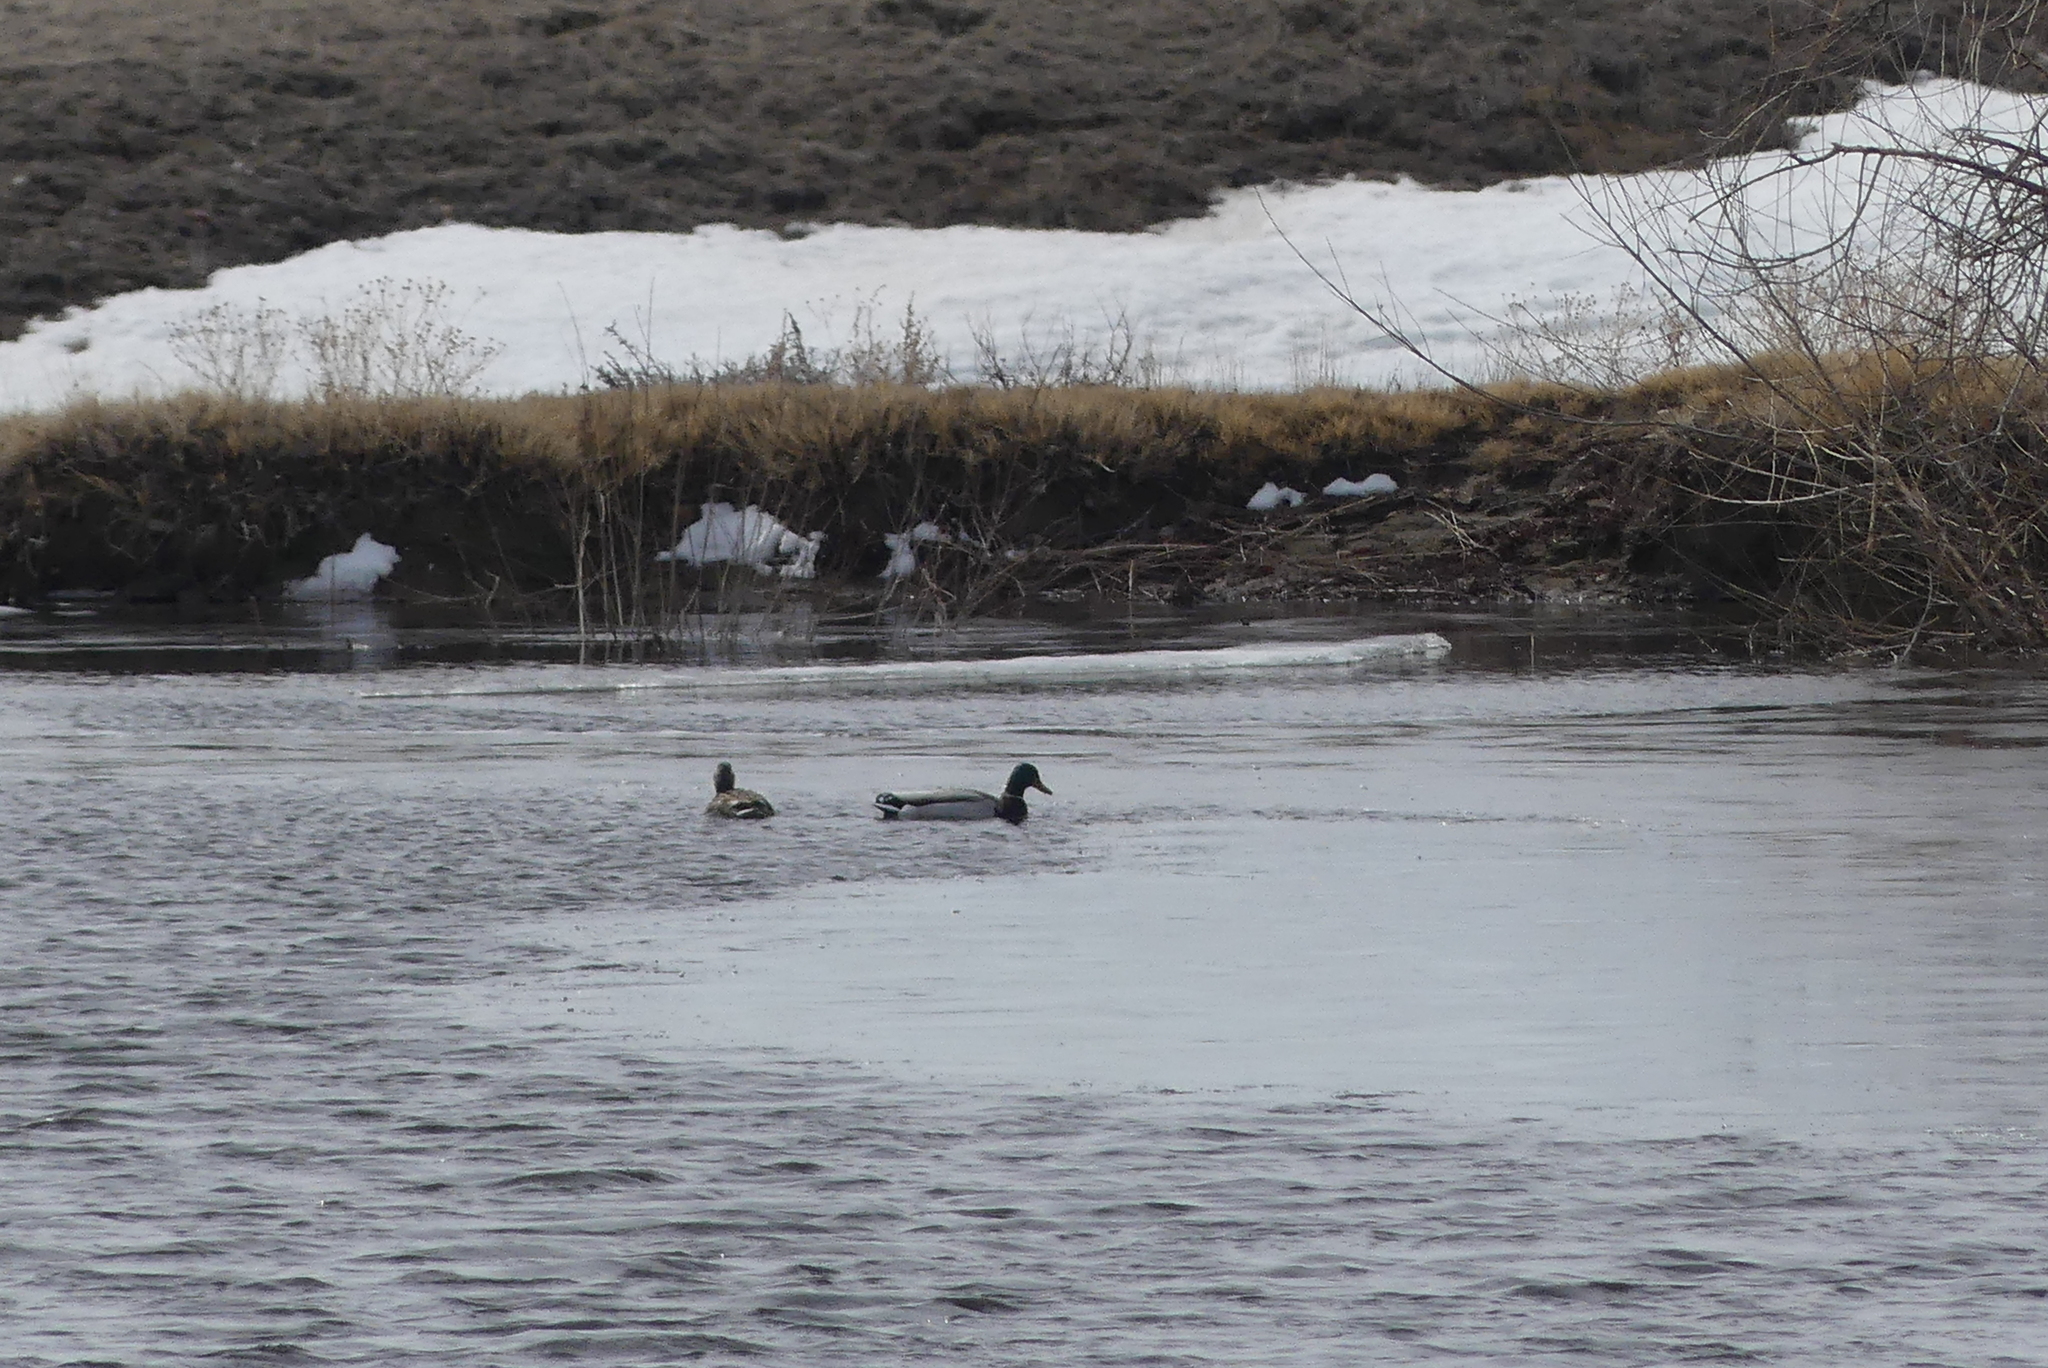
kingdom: Animalia
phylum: Chordata
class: Aves
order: Anseriformes
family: Anatidae
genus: Anas
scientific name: Anas platyrhynchos
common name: Mallard
